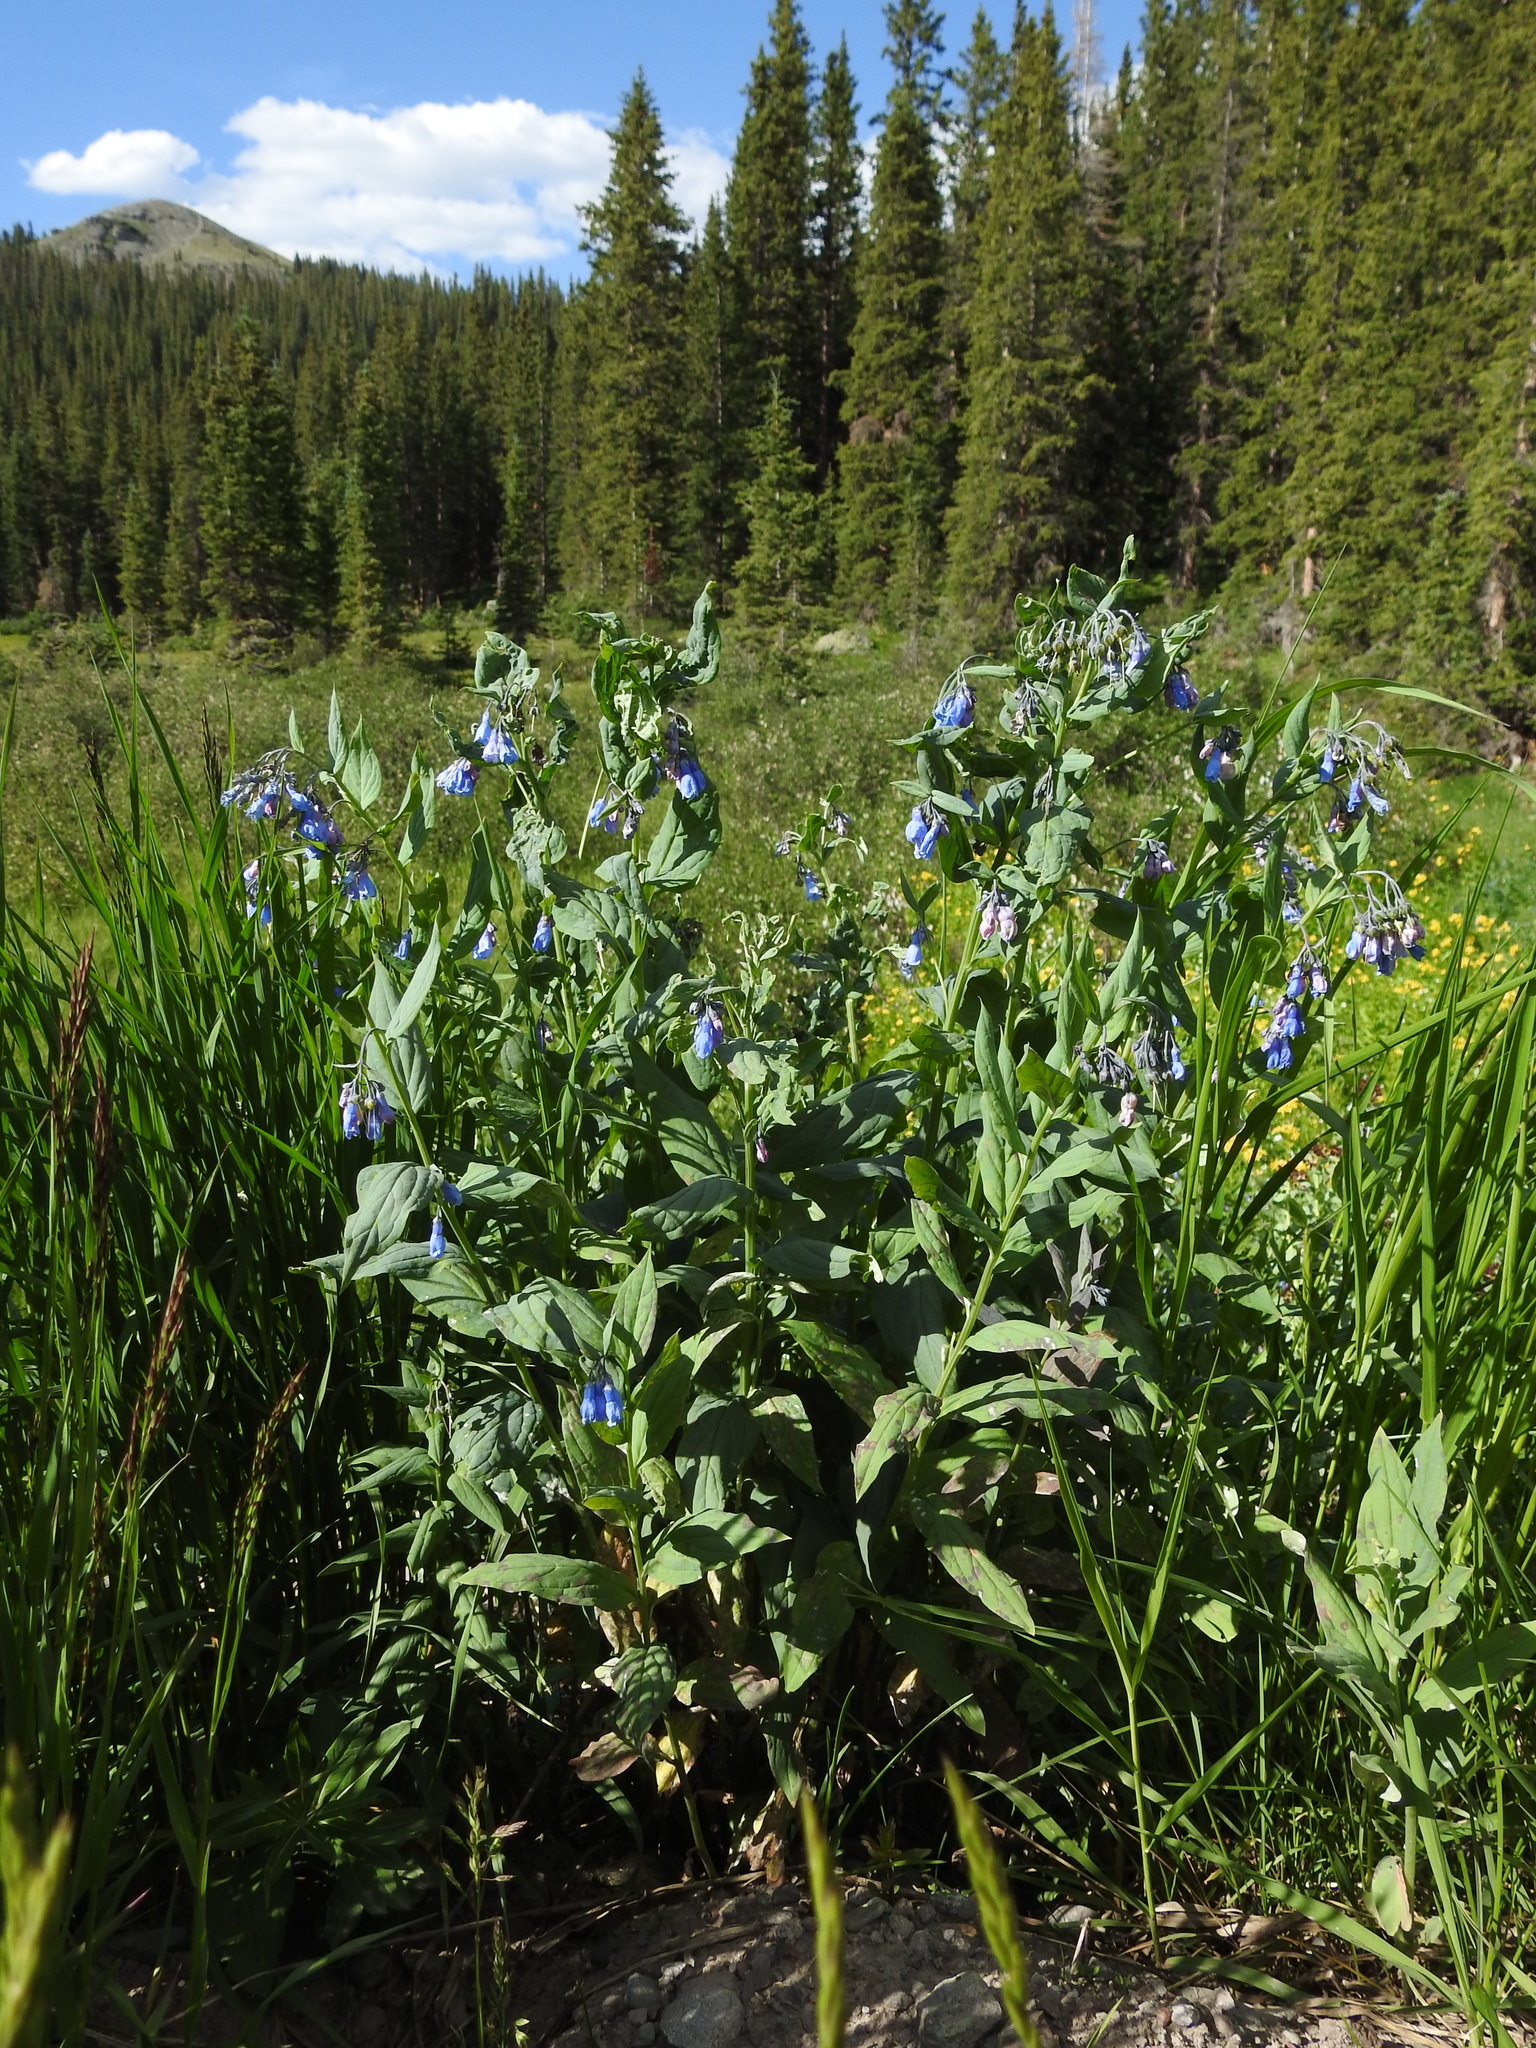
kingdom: Plantae
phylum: Tracheophyta
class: Magnoliopsida
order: Boraginales
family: Boraginaceae
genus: Mertensia
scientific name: Mertensia ciliata
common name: Tall chiming-bells
